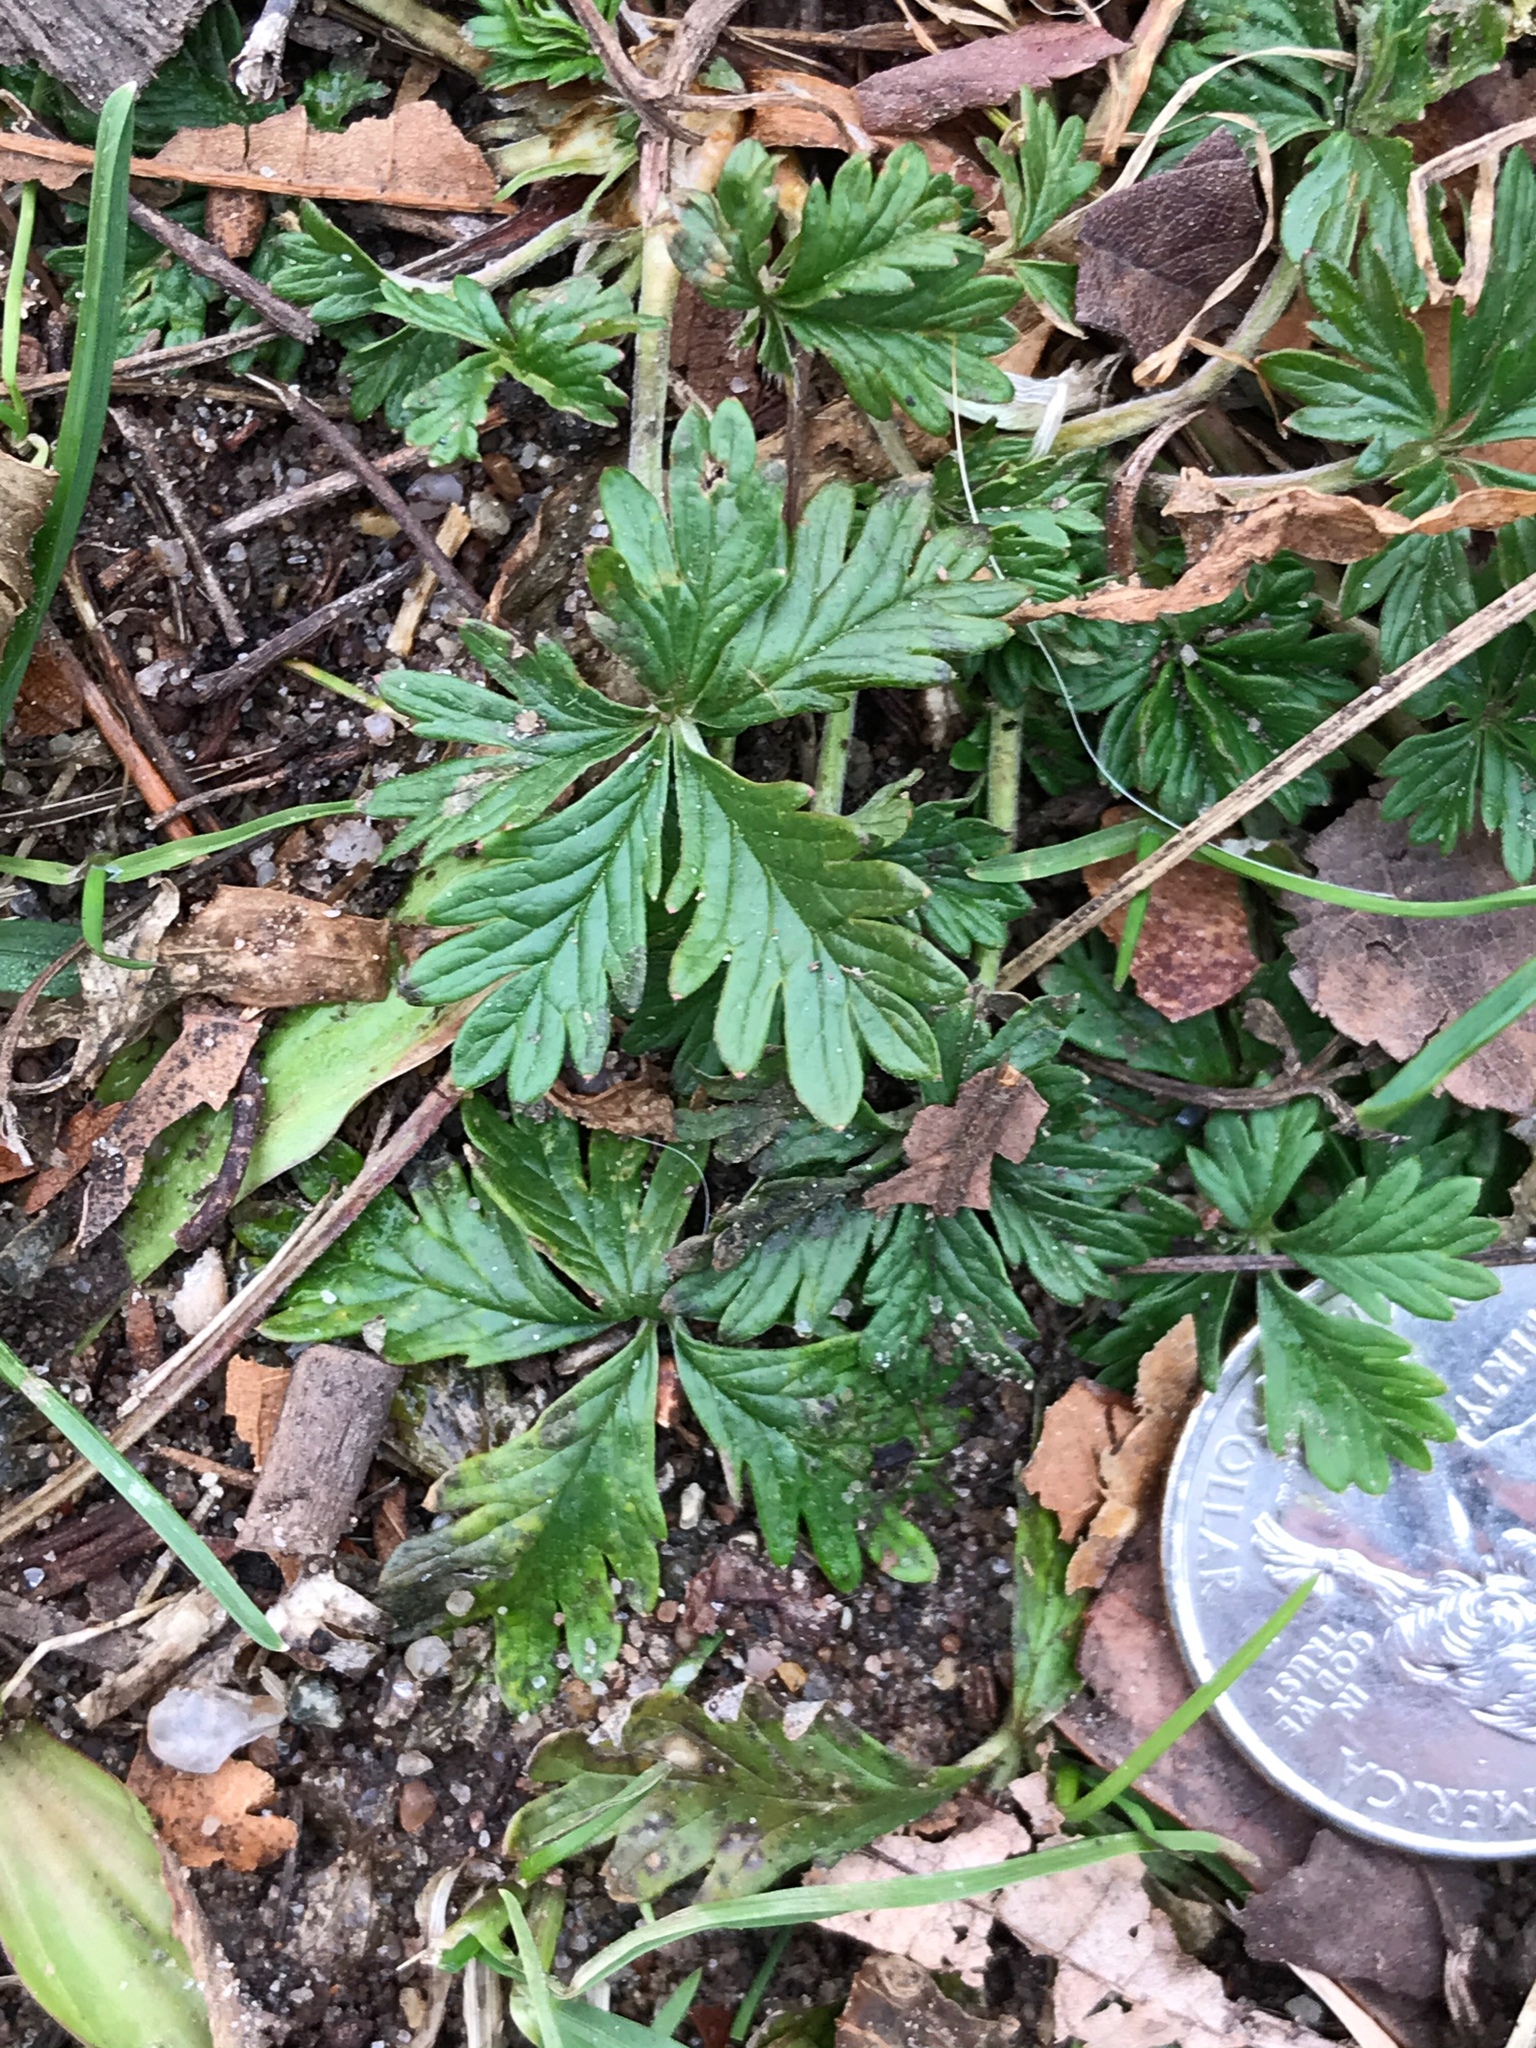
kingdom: Plantae
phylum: Tracheophyta
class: Magnoliopsida
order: Rosales
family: Rosaceae
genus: Potentilla
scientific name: Potentilla argentea
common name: Hoary cinquefoil
